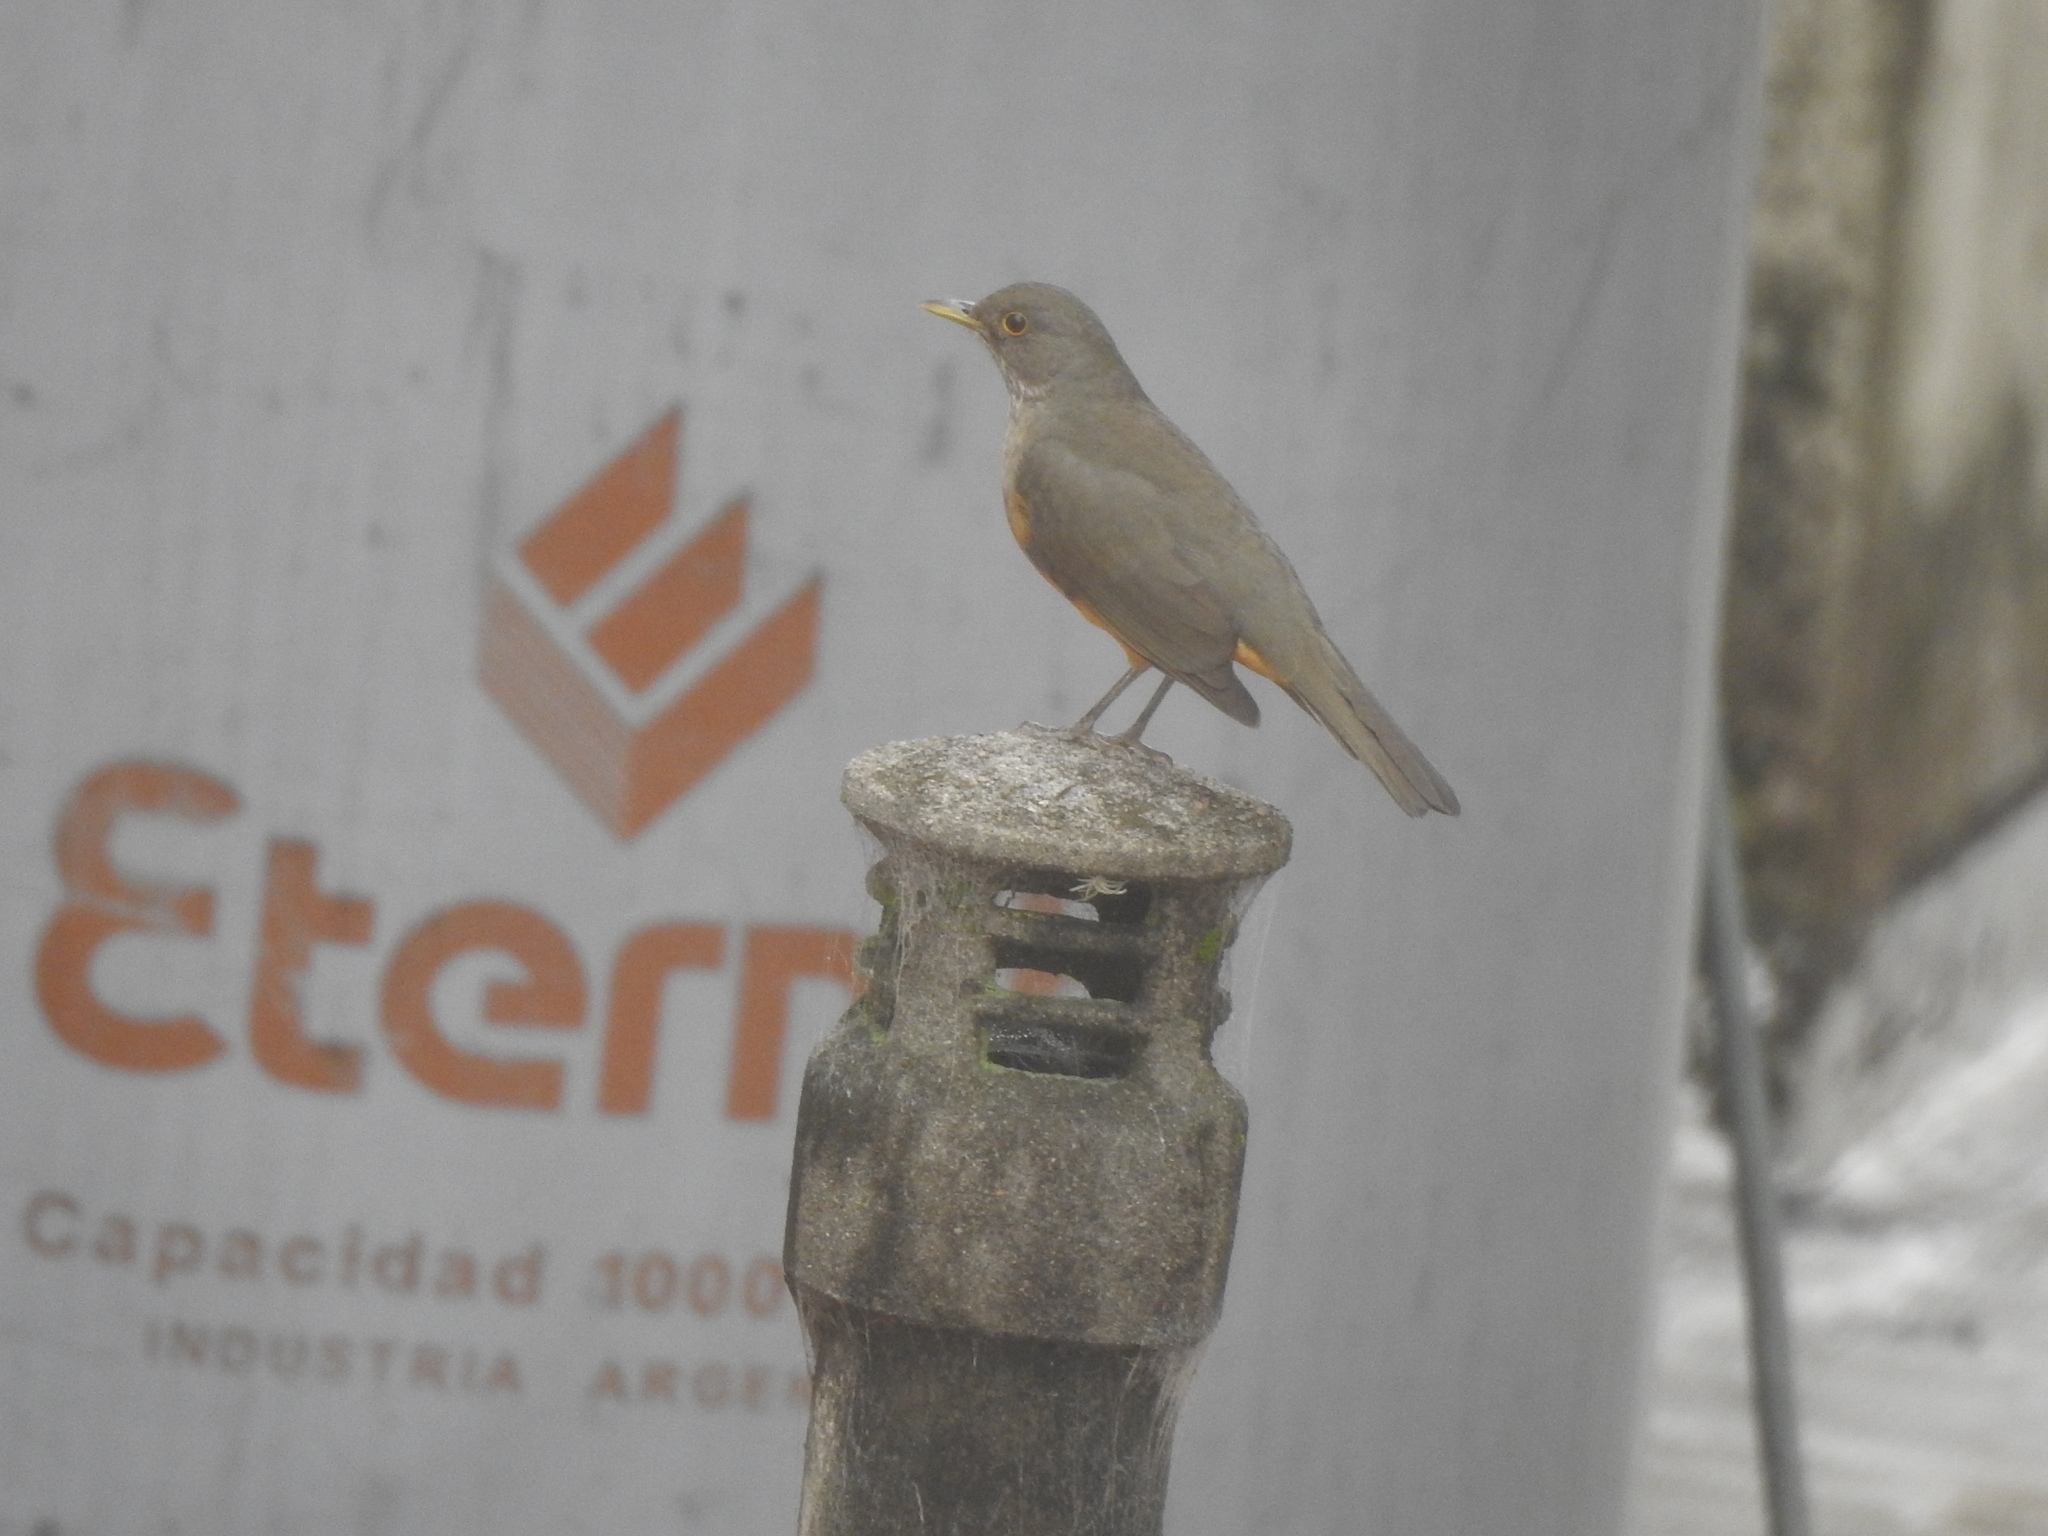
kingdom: Animalia
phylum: Chordata
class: Aves
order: Passeriformes
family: Turdidae
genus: Turdus
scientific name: Turdus rufiventris
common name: Rufous-bellied thrush
